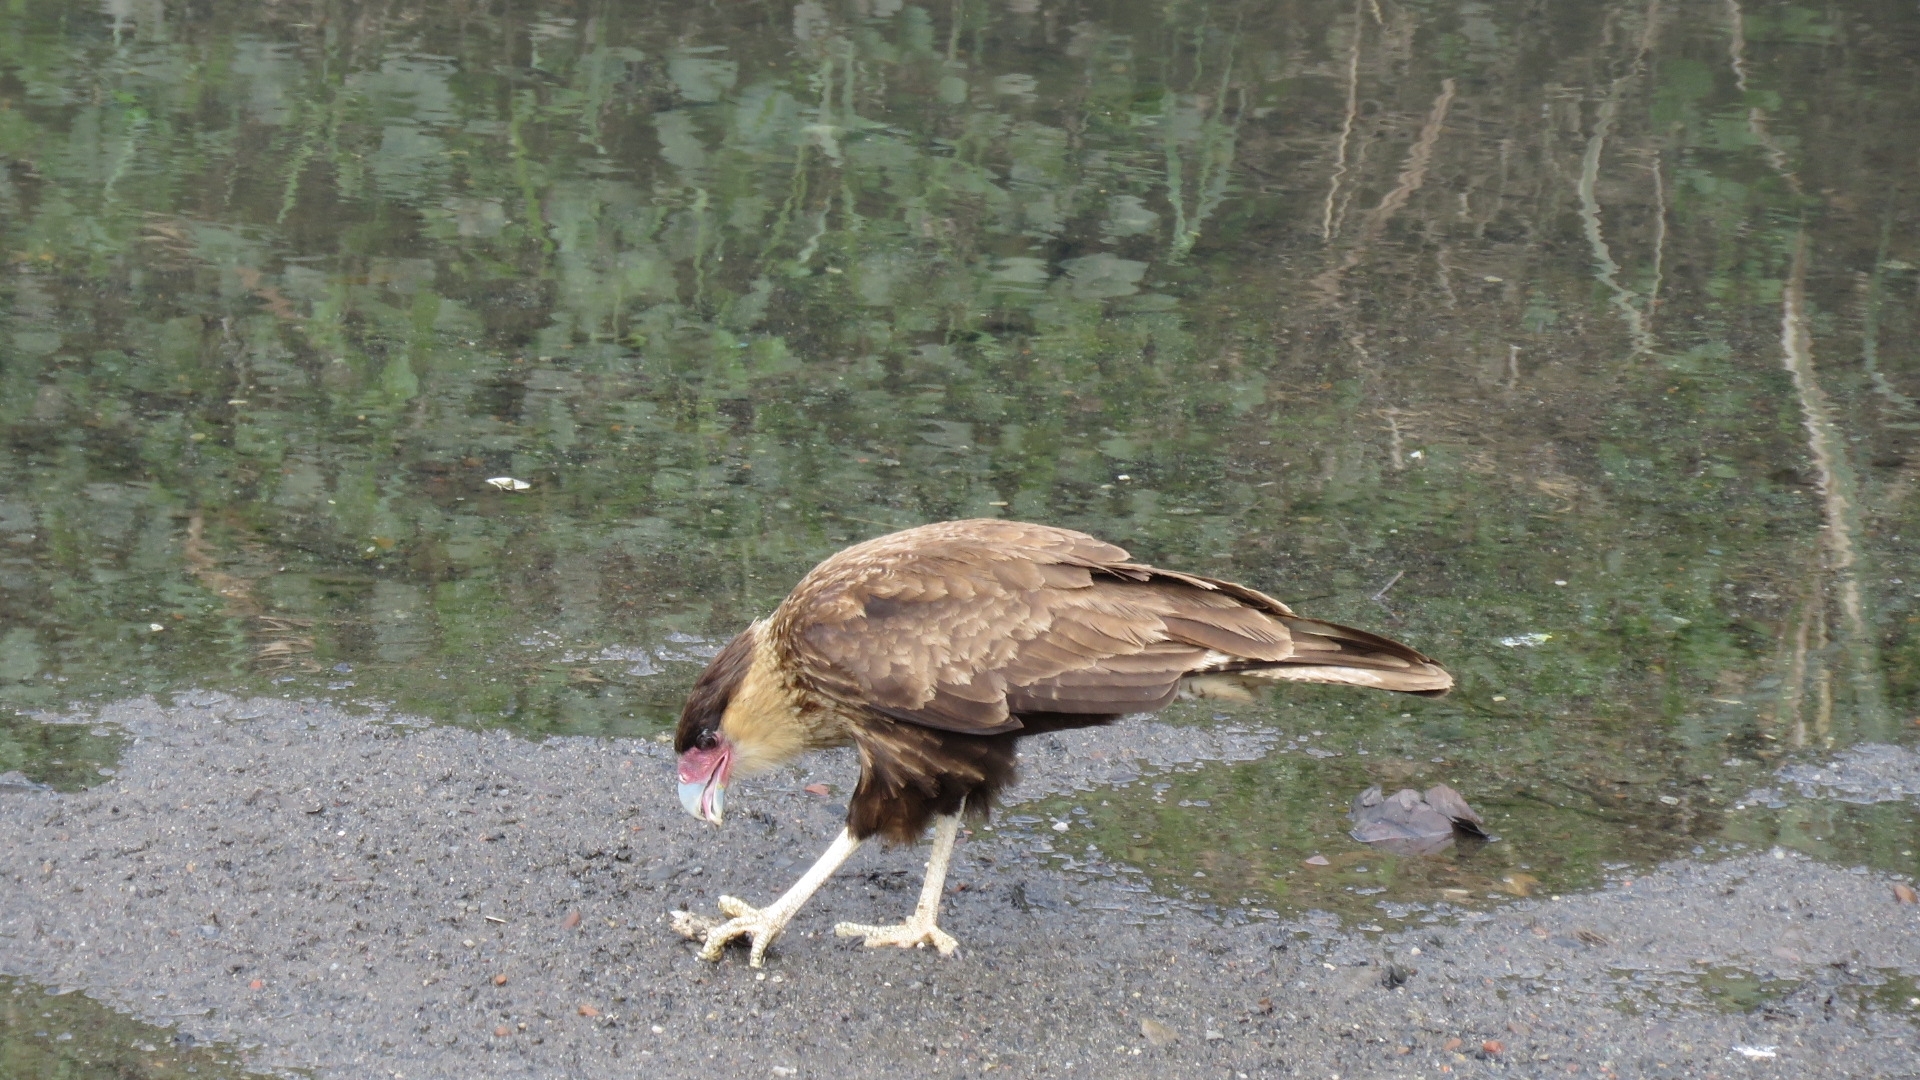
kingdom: Animalia
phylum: Chordata
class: Aves
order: Falconiformes
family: Falconidae
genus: Caracara
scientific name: Caracara plancus
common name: Southern caracara
